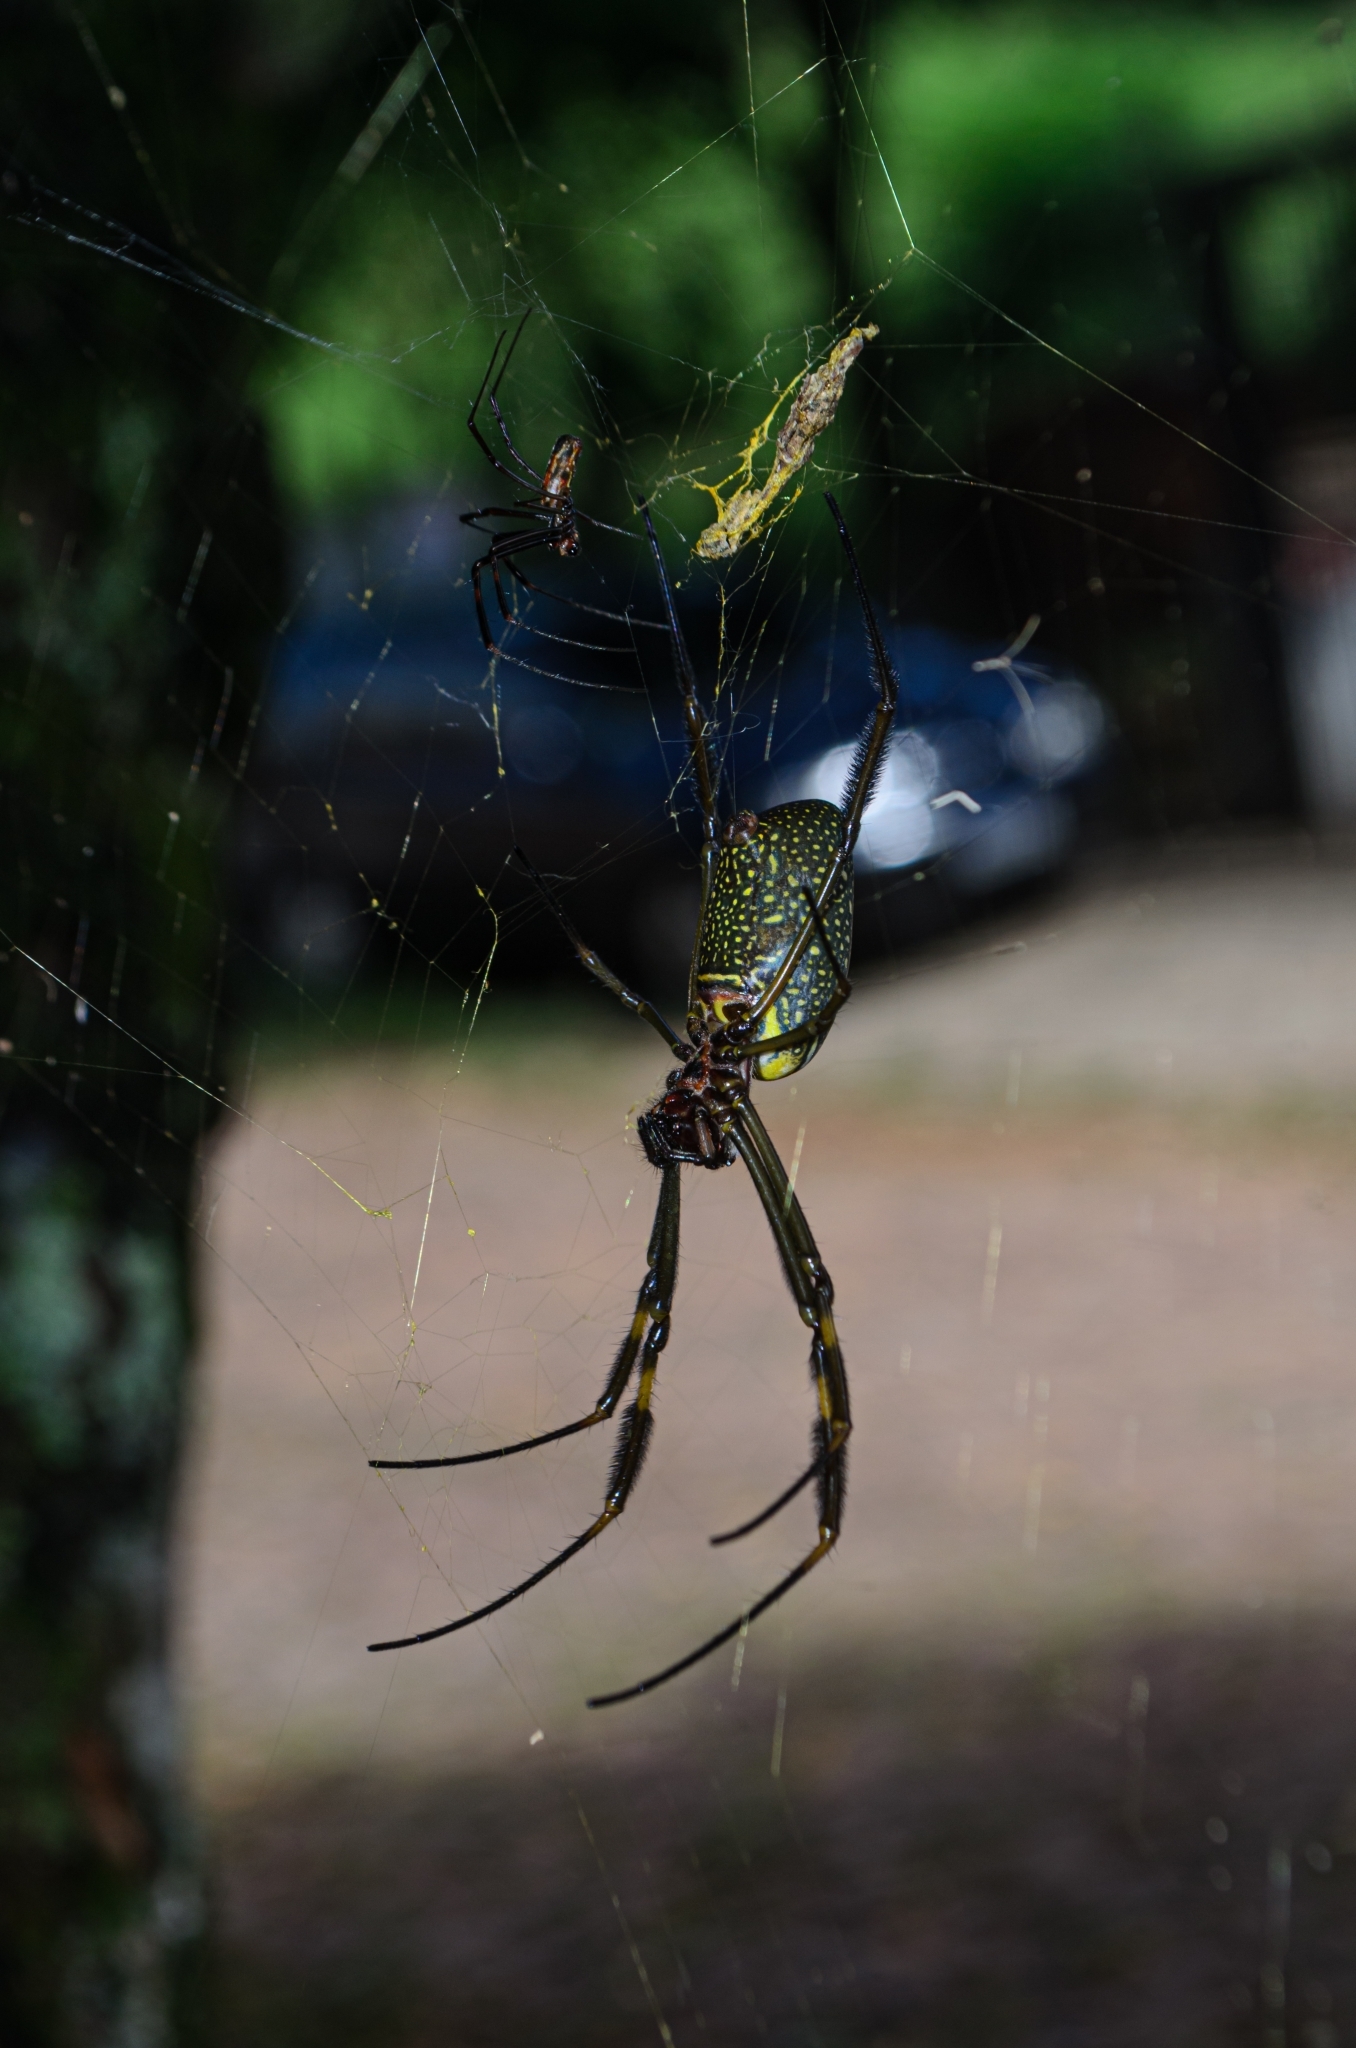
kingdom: Animalia
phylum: Arthropoda
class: Arachnida
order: Araneae
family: Araneidae
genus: Trichonephila
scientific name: Trichonephila clavipes
